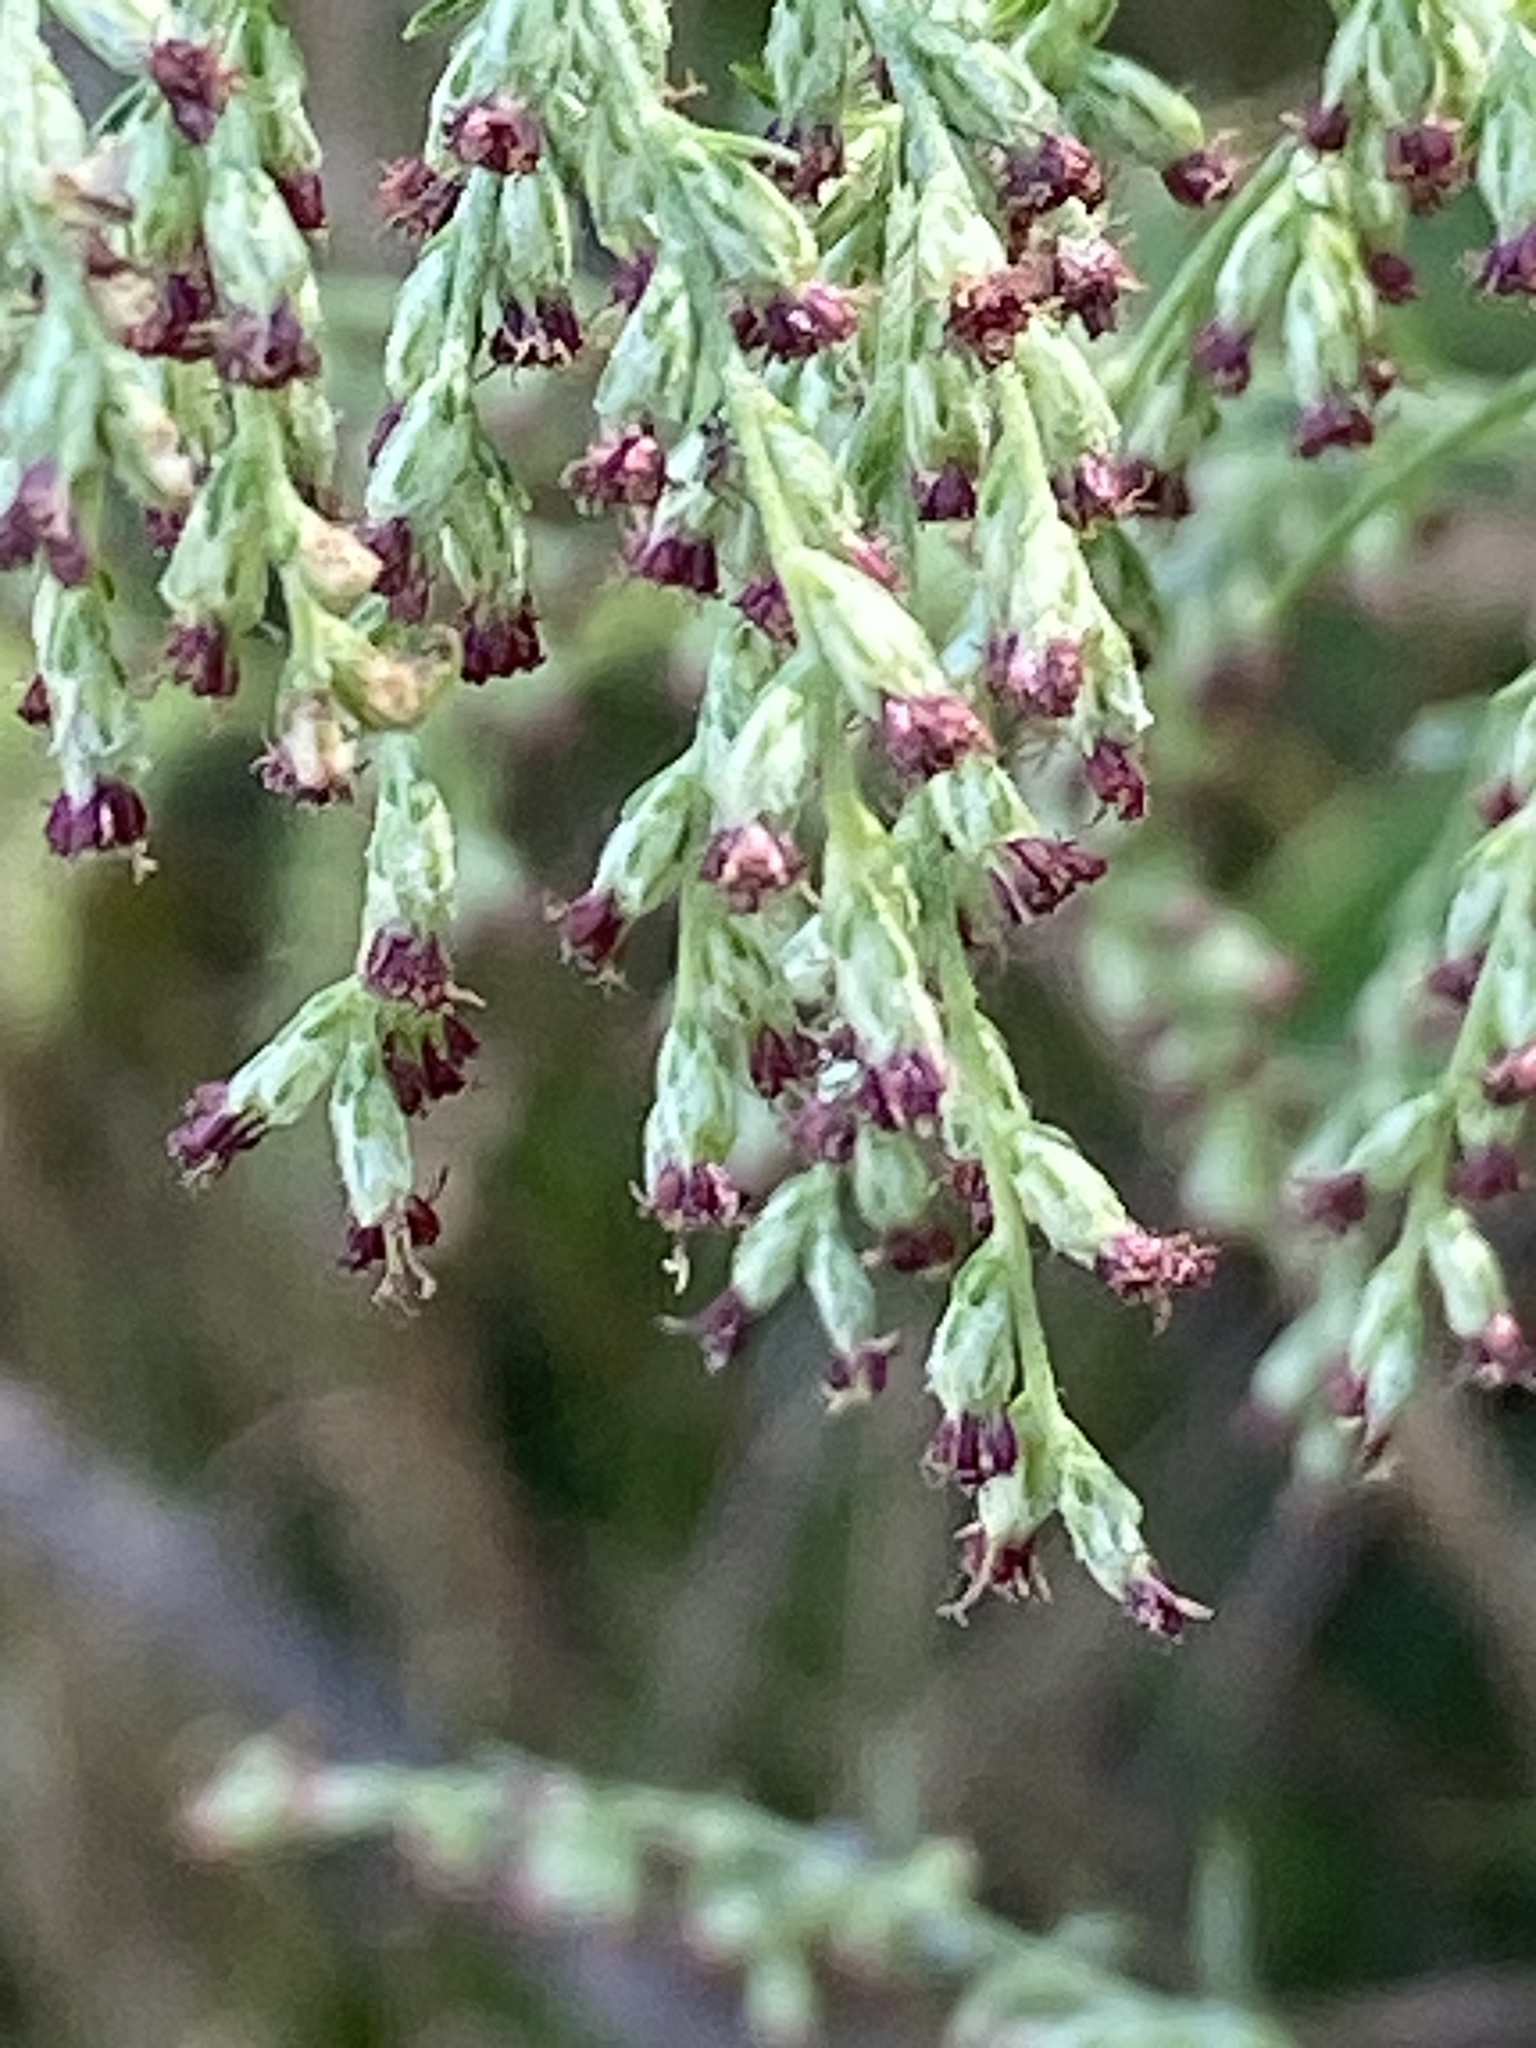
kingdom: Plantae
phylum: Tracheophyta
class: Magnoliopsida
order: Asterales
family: Asteraceae
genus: Artemisia
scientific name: Artemisia vulgaris
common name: Mugwort
